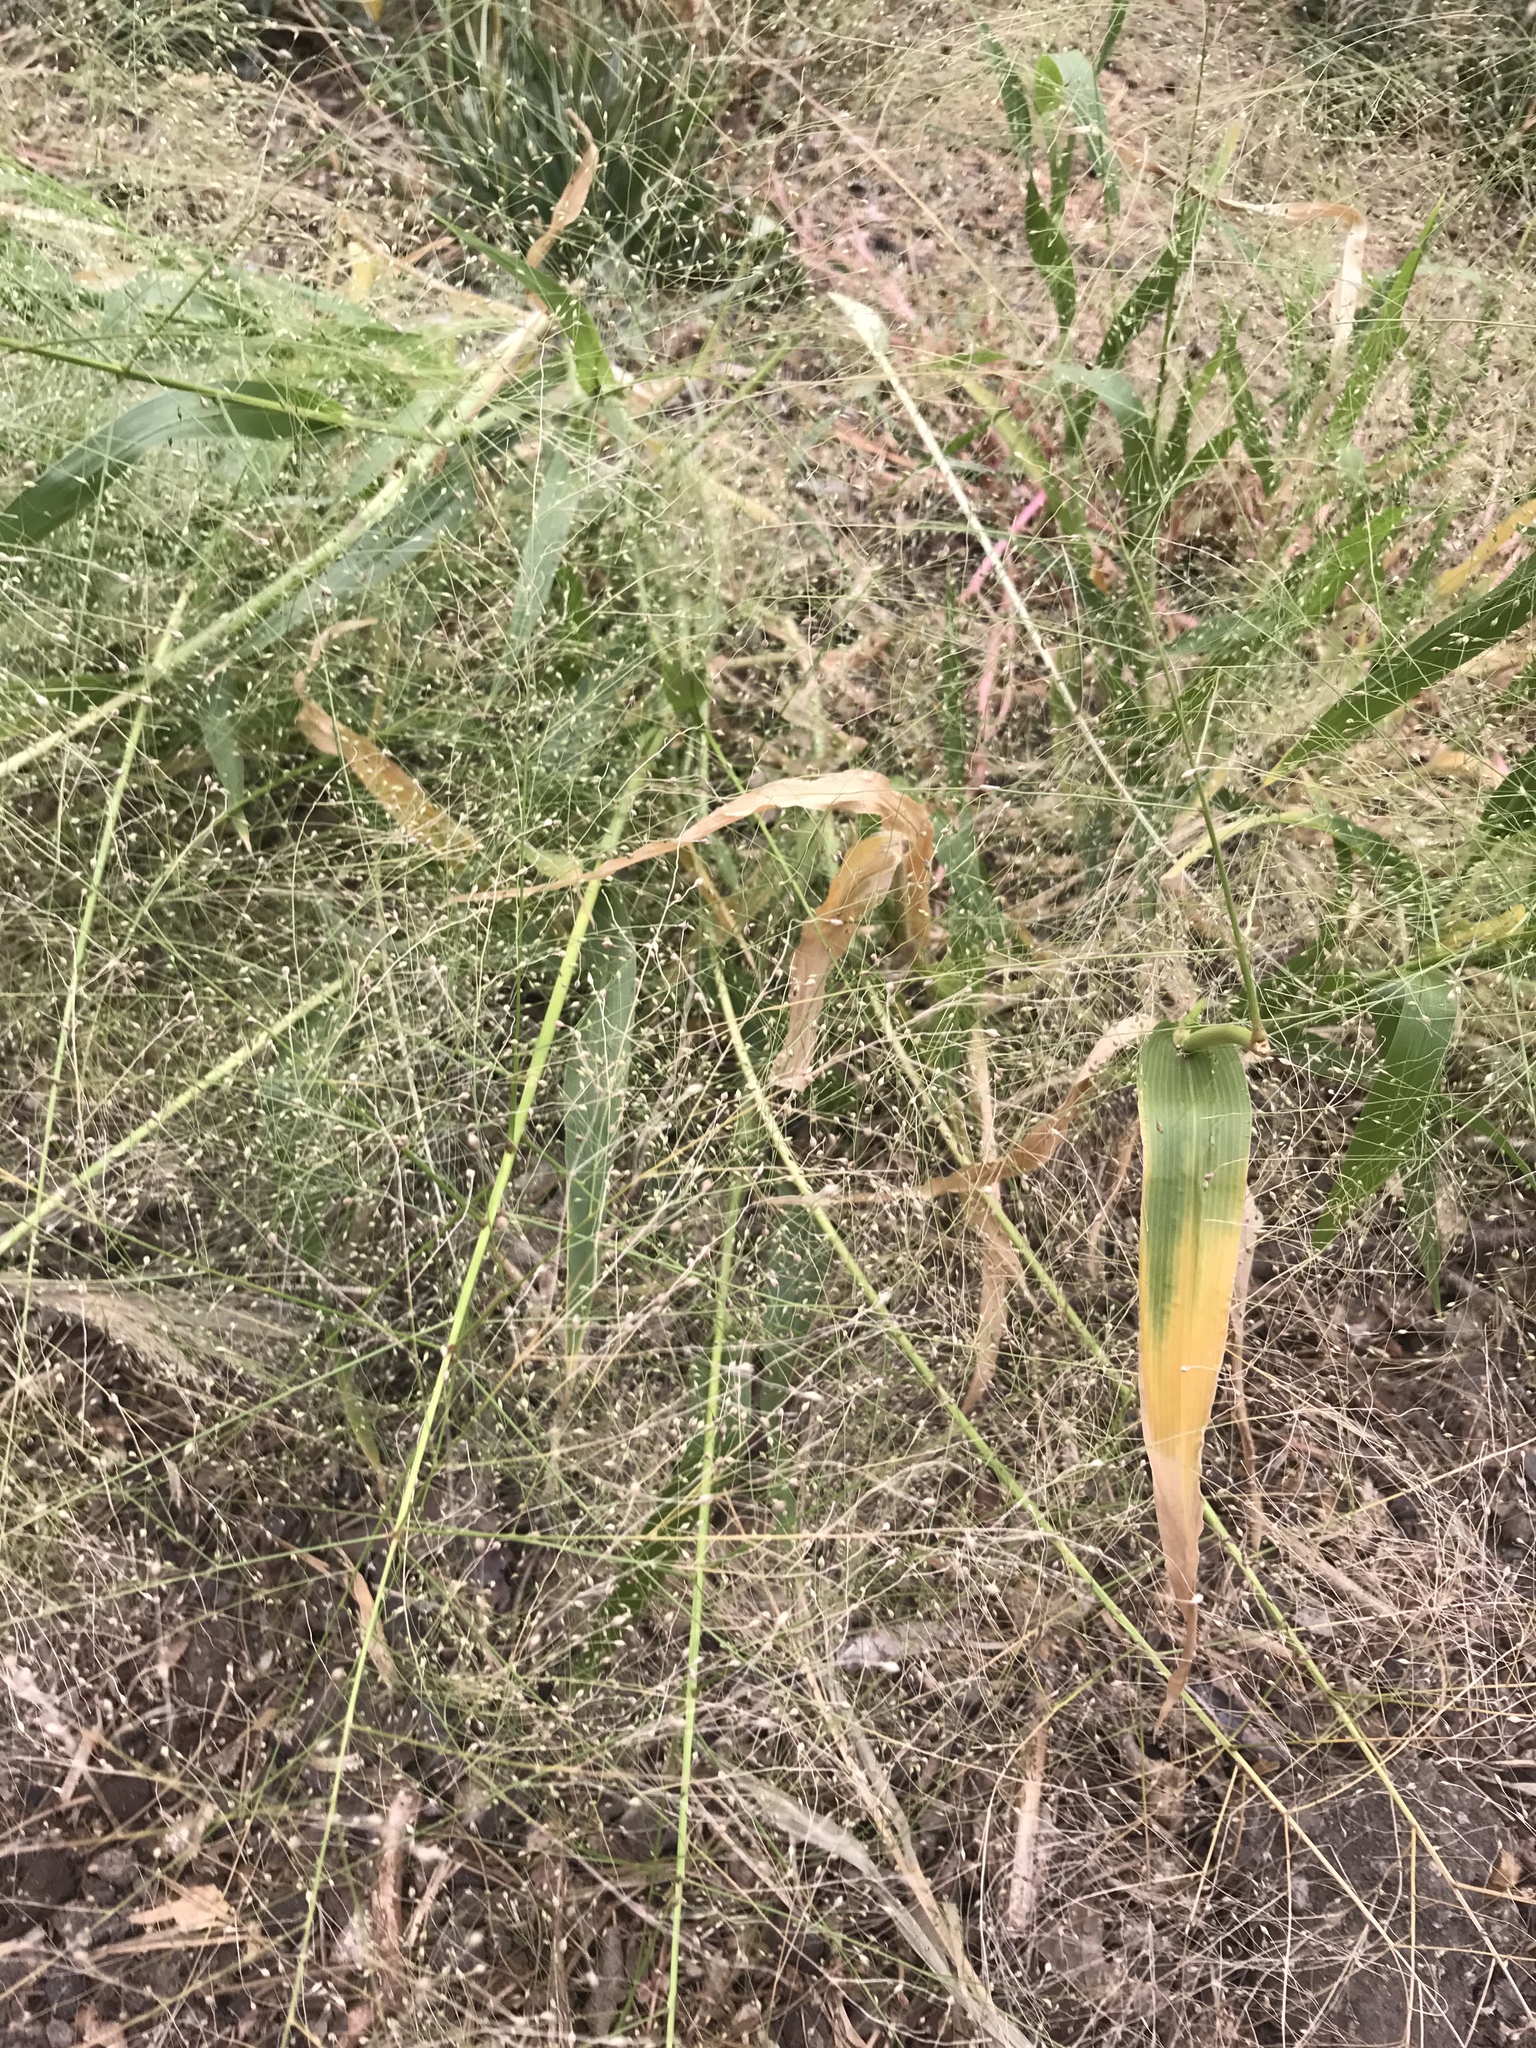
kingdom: Plantae
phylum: Tracheophyta
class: Liliopsida
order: Poales
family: Poaceae
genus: Panicum
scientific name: Panicum capillare
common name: Witch-grass
